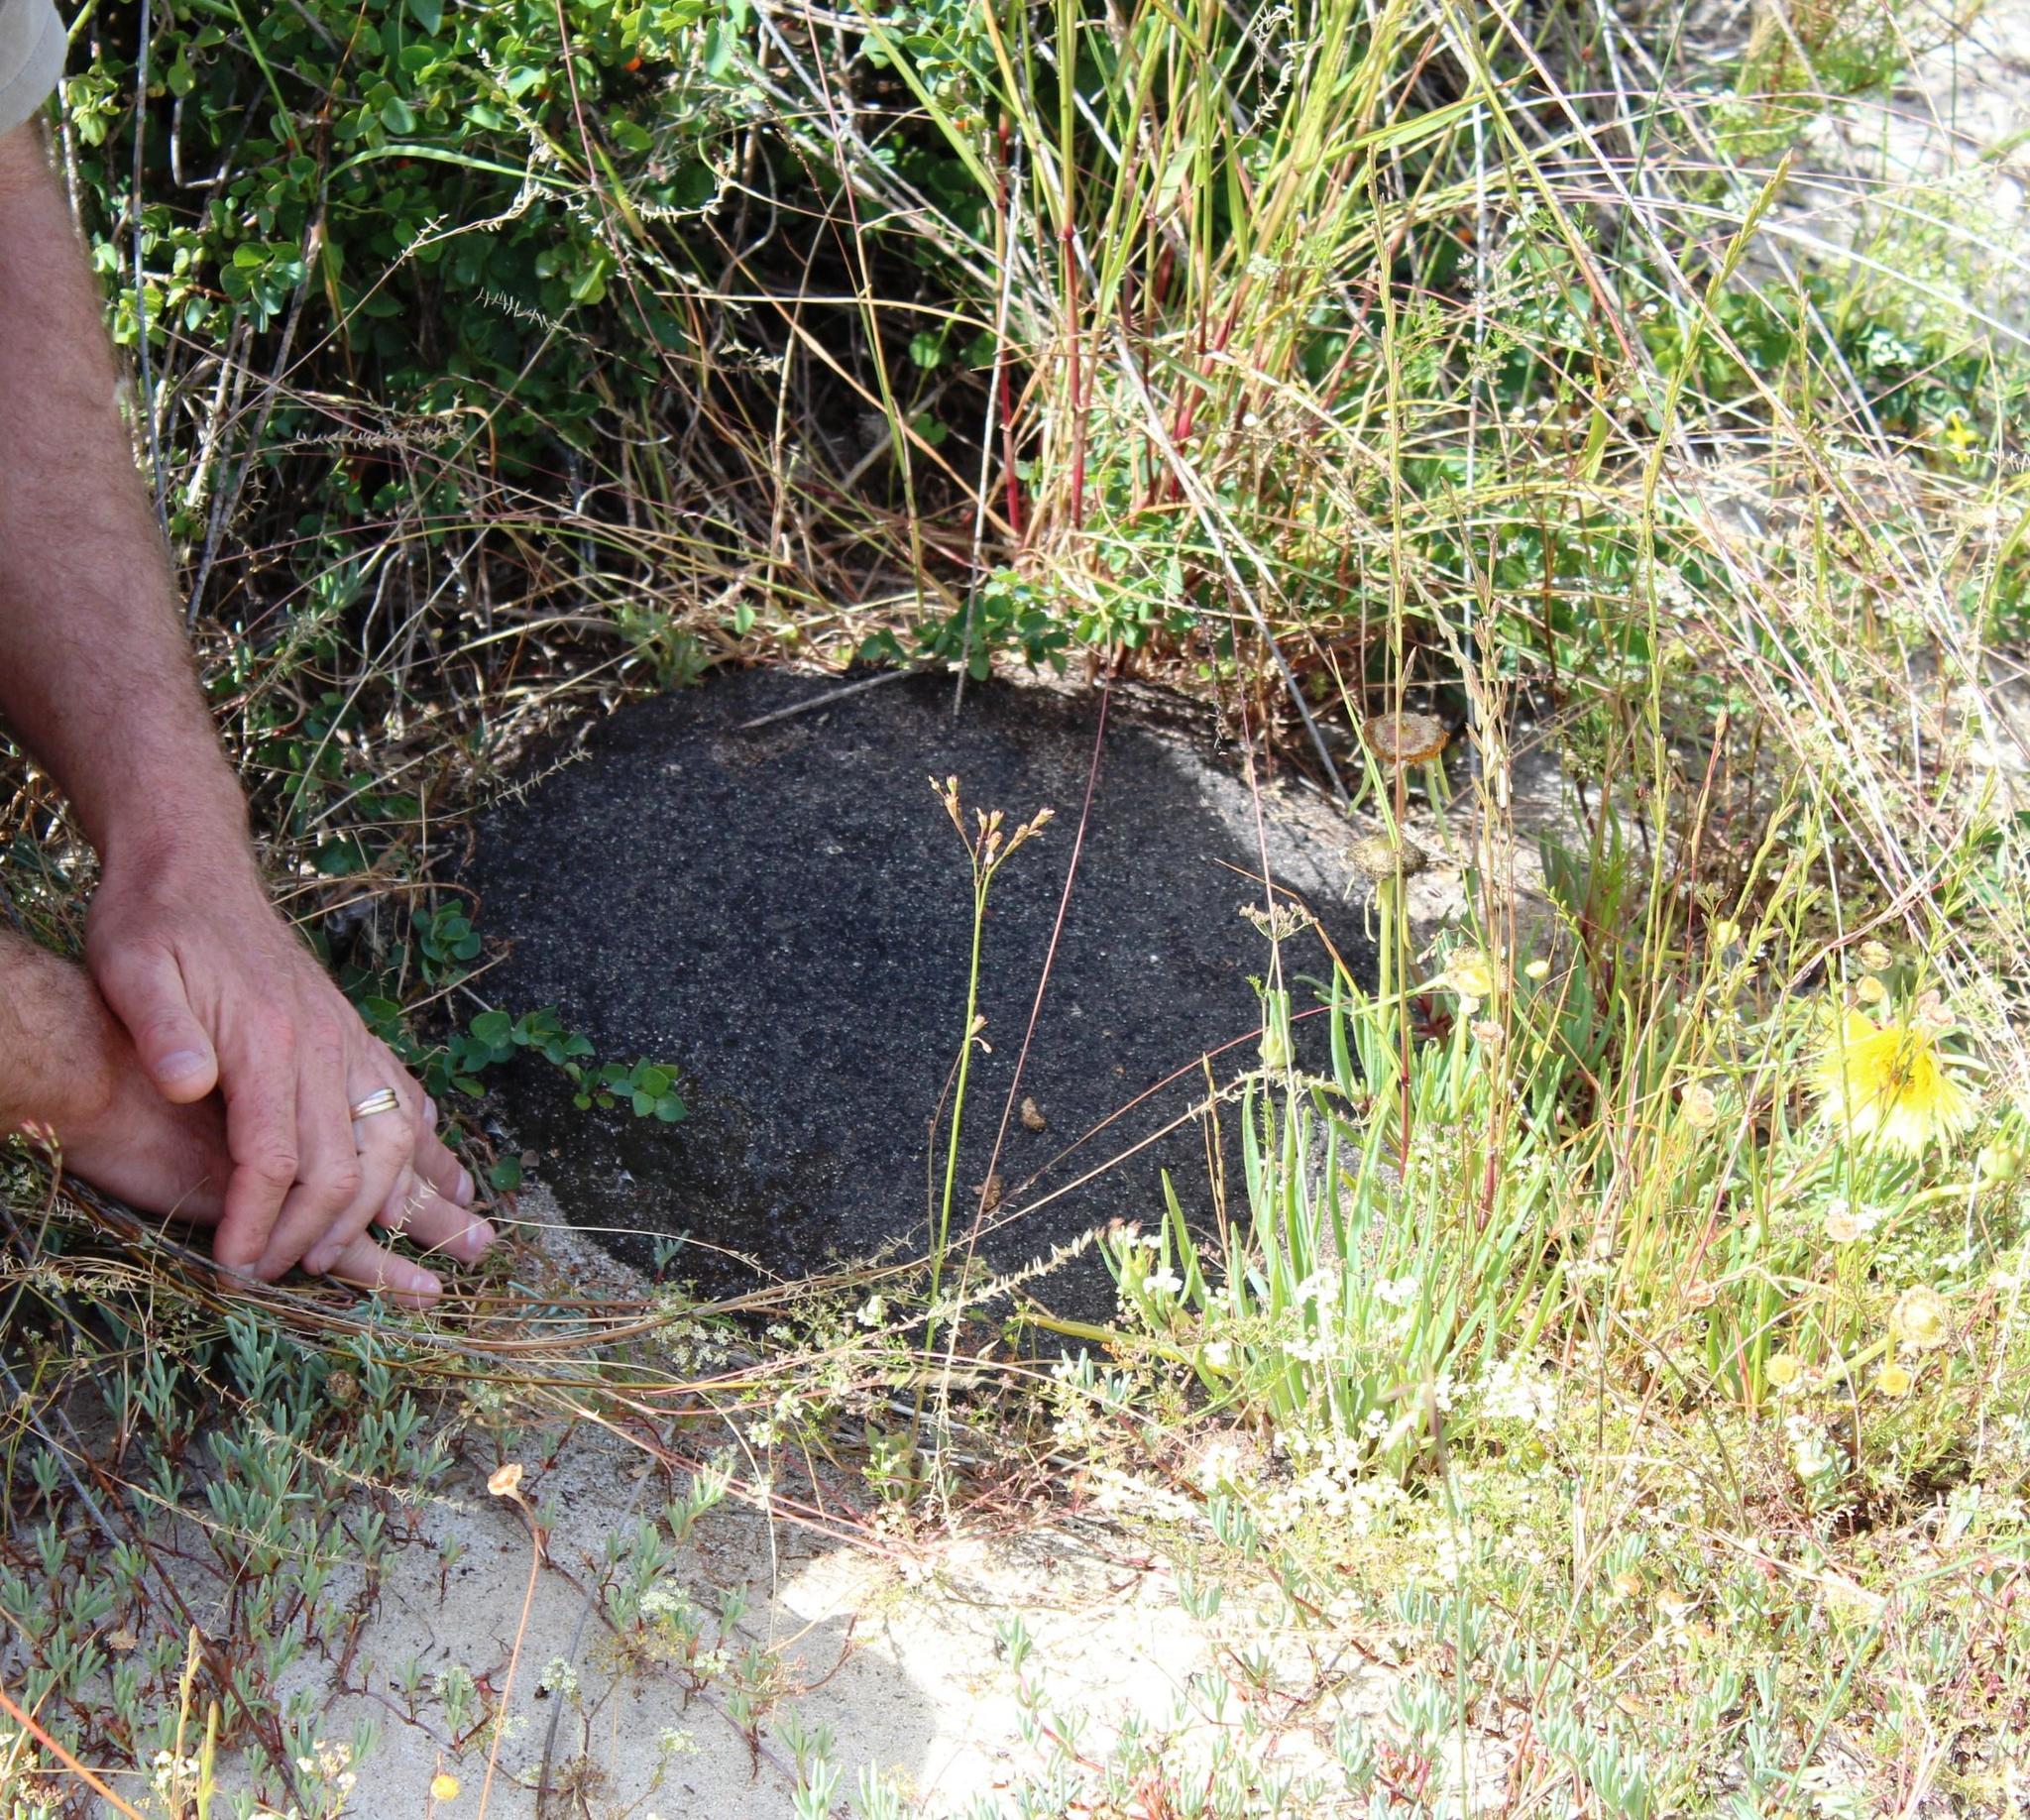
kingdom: Animalia
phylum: Arthropoda
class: Insecta
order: Blattodea
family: Termitidae
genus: Amitermes
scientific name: Amitermes hastatus
